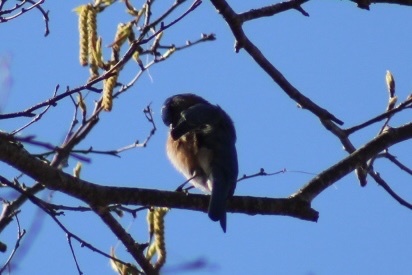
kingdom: Animalia
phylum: Chordata
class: Aves
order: Passeriformes
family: Turdidae
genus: Sialia
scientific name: Sialia sialis
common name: Eastern bluebird
